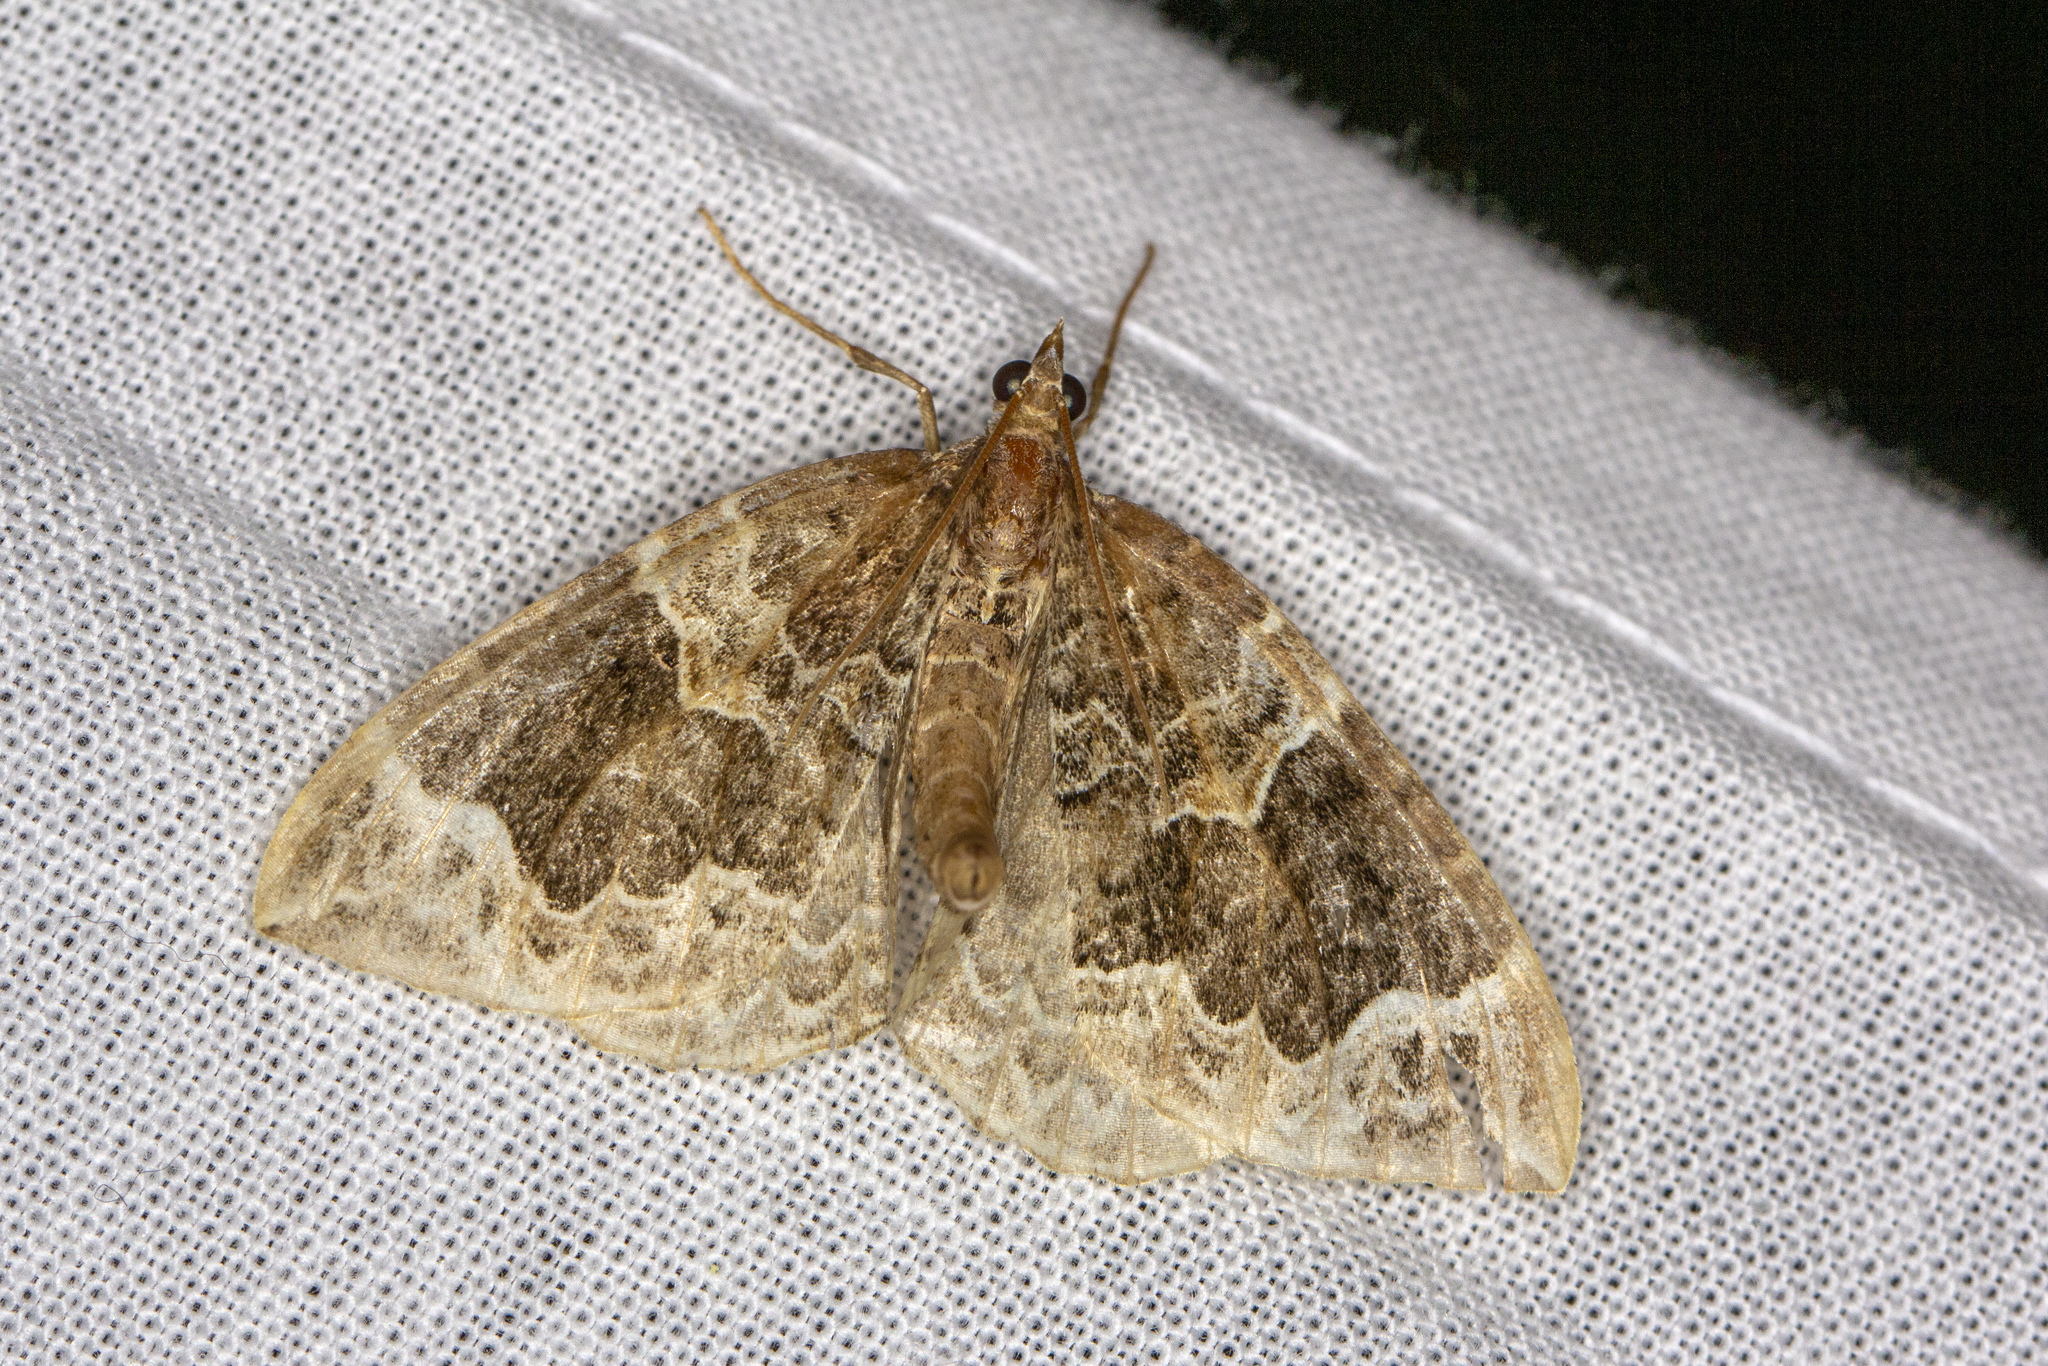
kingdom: Animalia
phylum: Arthropoda
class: Insecta
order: Lepidoptera
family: Geometridae
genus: Eulithis
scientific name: Eulithis prunata
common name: Phoenix
